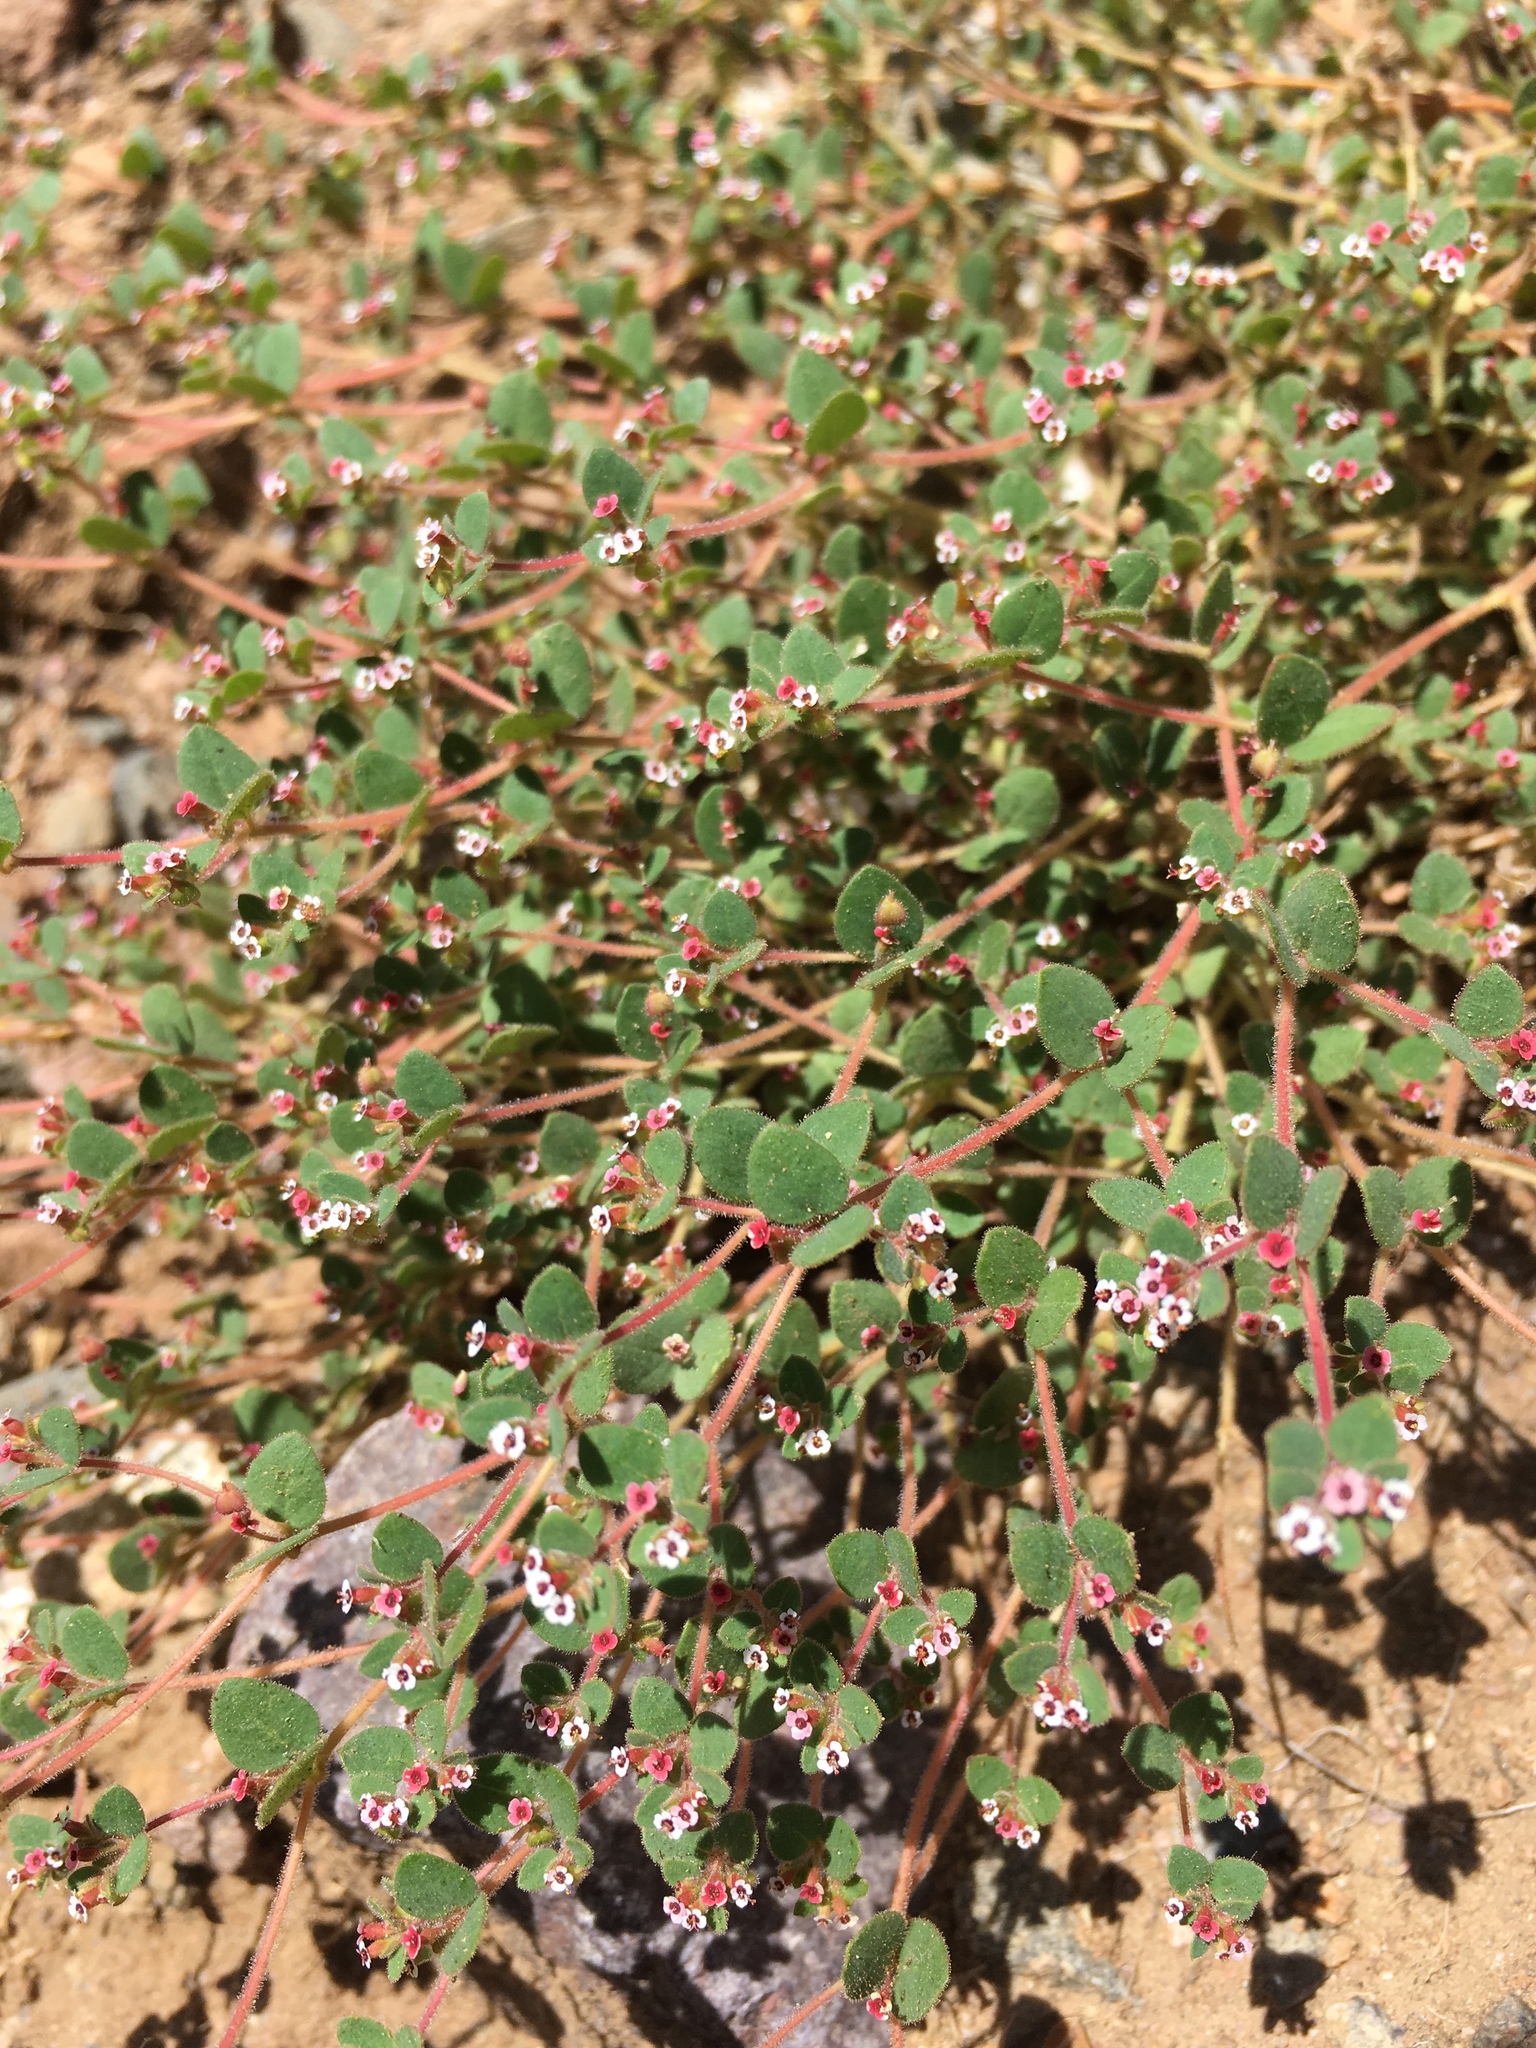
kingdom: Plantae
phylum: Tracheophyta
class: Magnoliopsida
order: Malpighiales
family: Euphorbiaceae
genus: Euphorbia
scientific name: Euphorbia arizonica
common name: Arizona spurge
